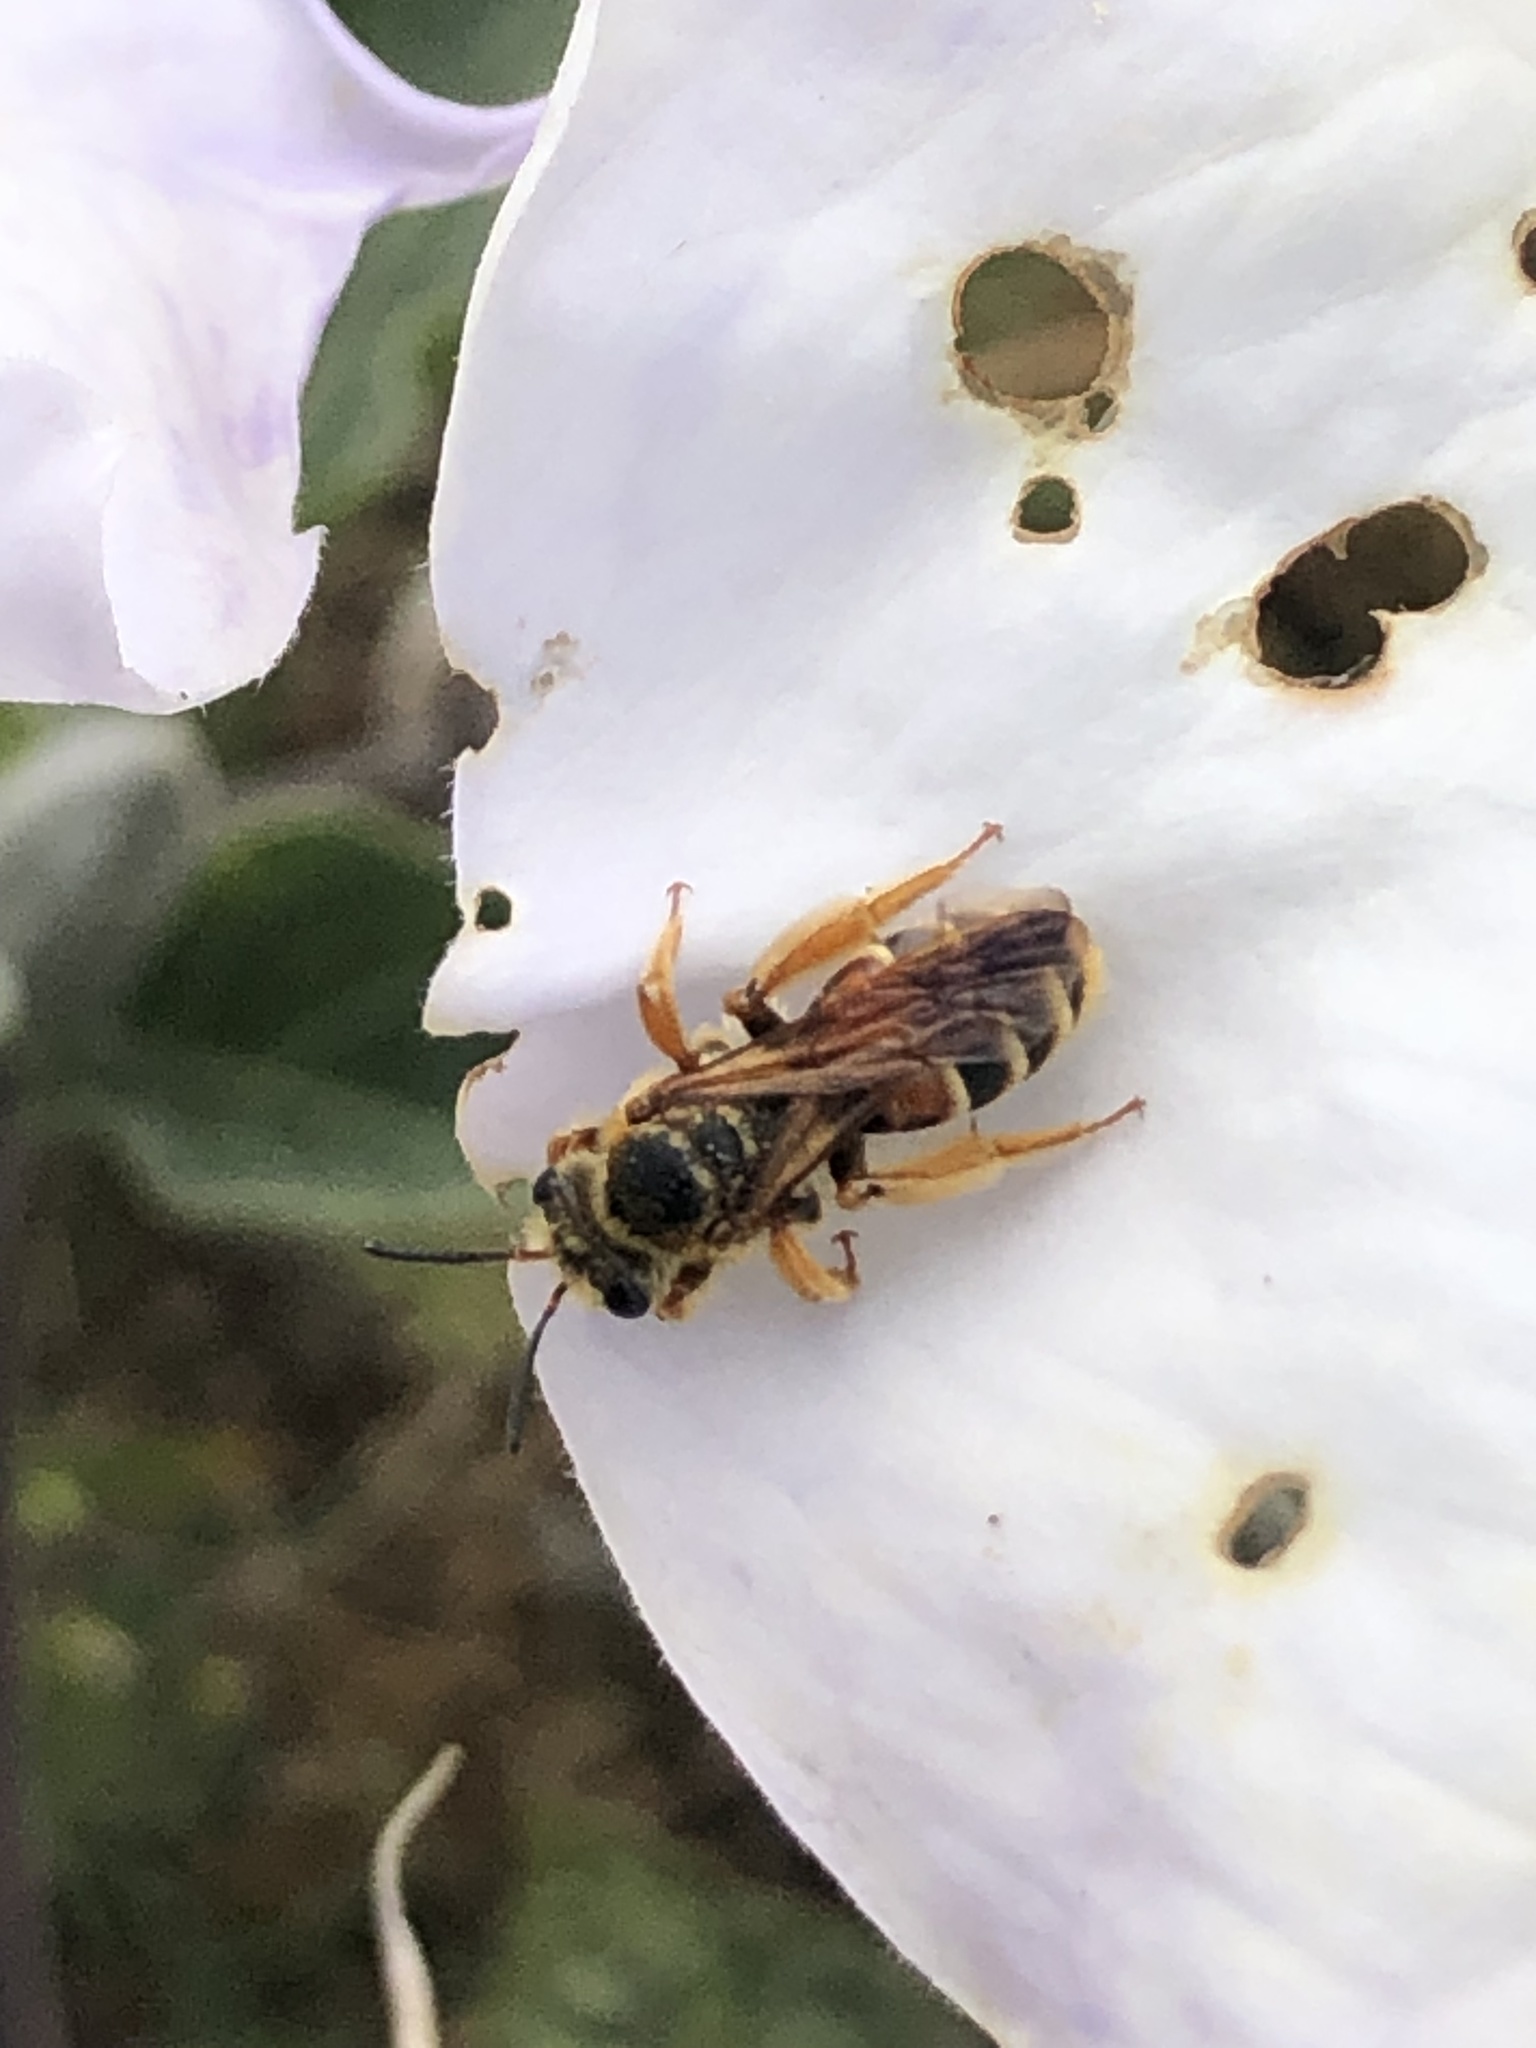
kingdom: Animalia
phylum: Arthropoda
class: Insecta
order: Hymenoptera
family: Andrenidae
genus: Andrena
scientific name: Andrena prunorum
